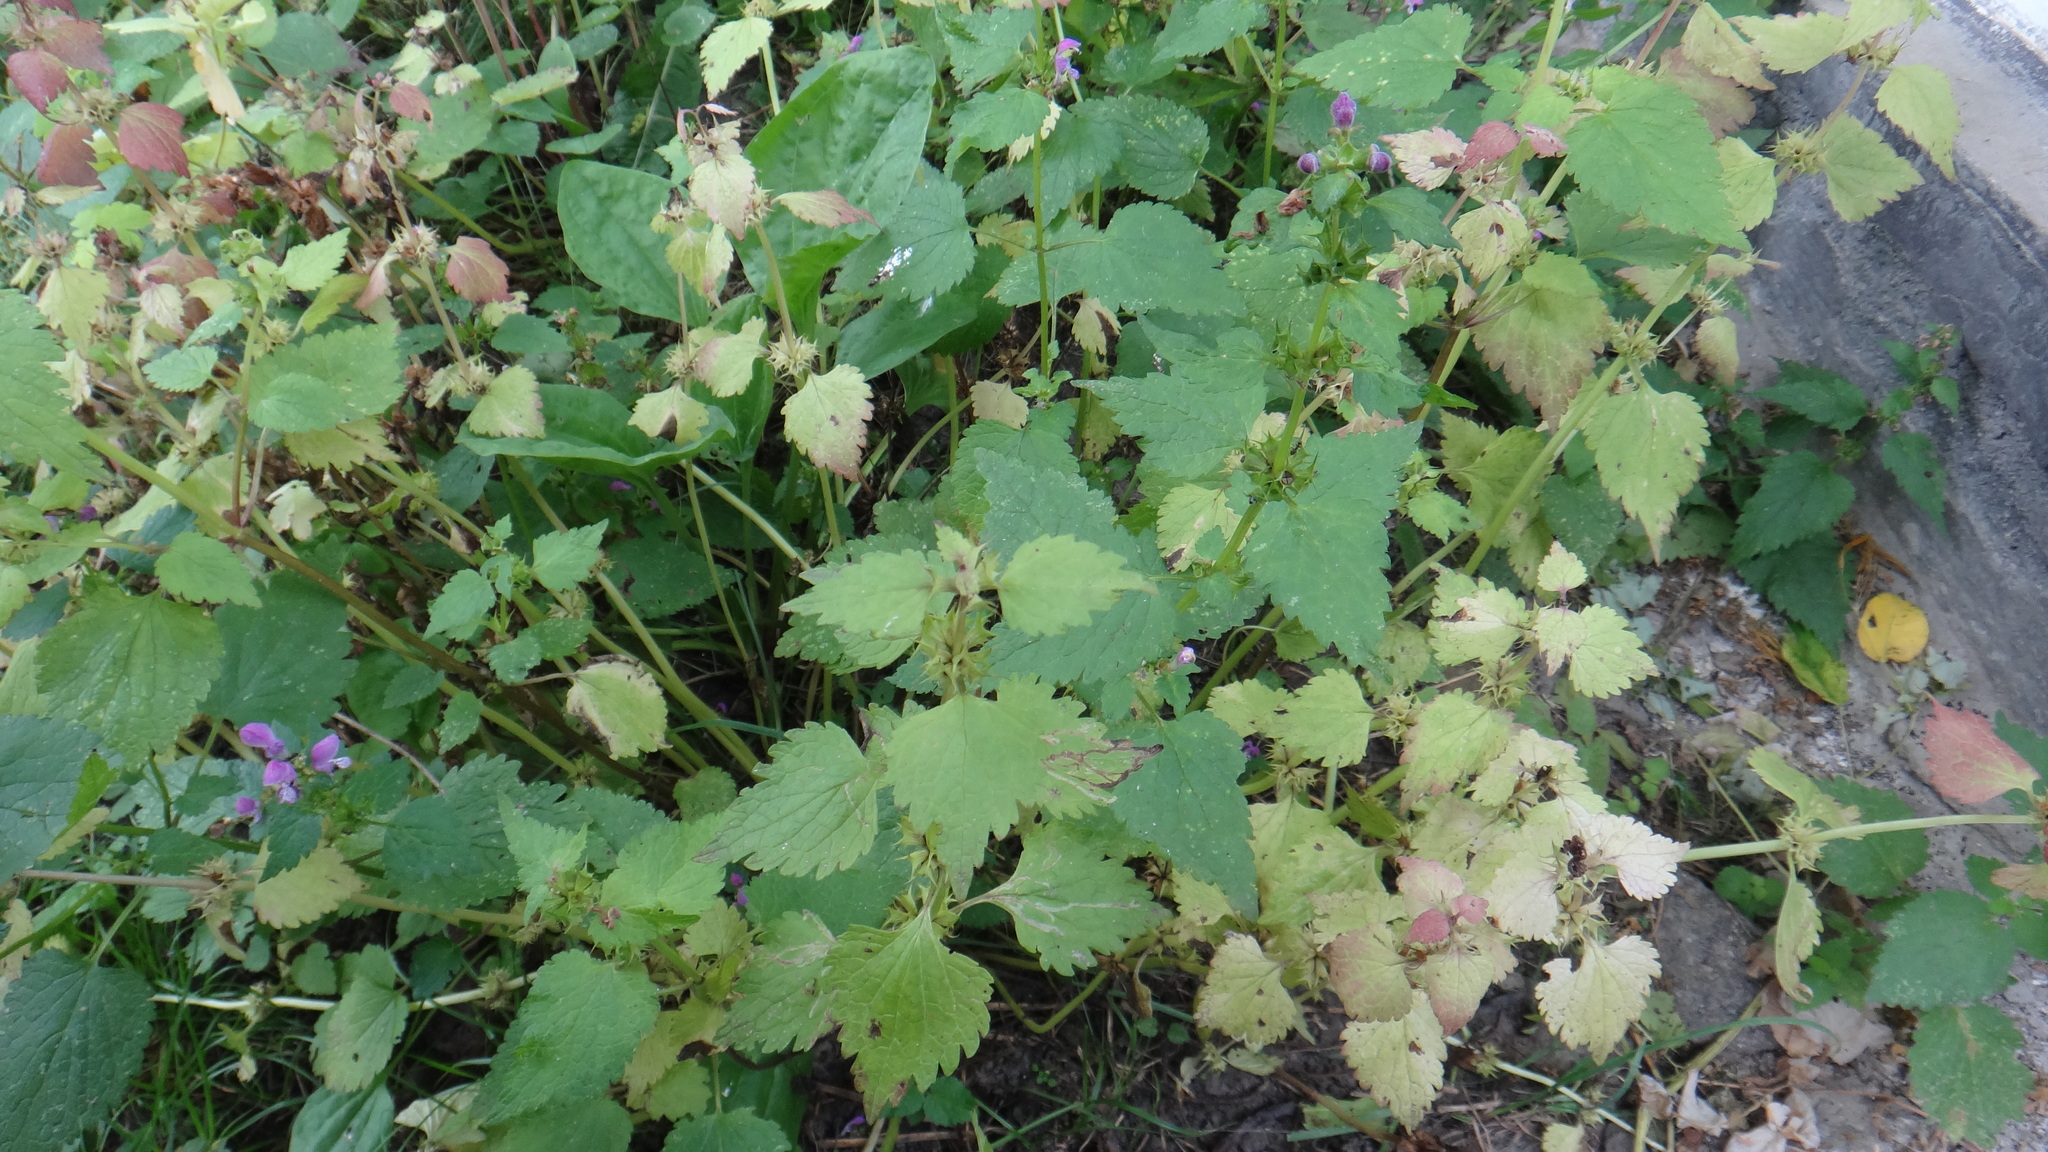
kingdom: Plantae
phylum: Tracheophyta
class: Magnoliopsida
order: Lamiales
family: Lamiaceae
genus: Lamium
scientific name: Lamium maculatum
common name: Spotted dead-nettle
